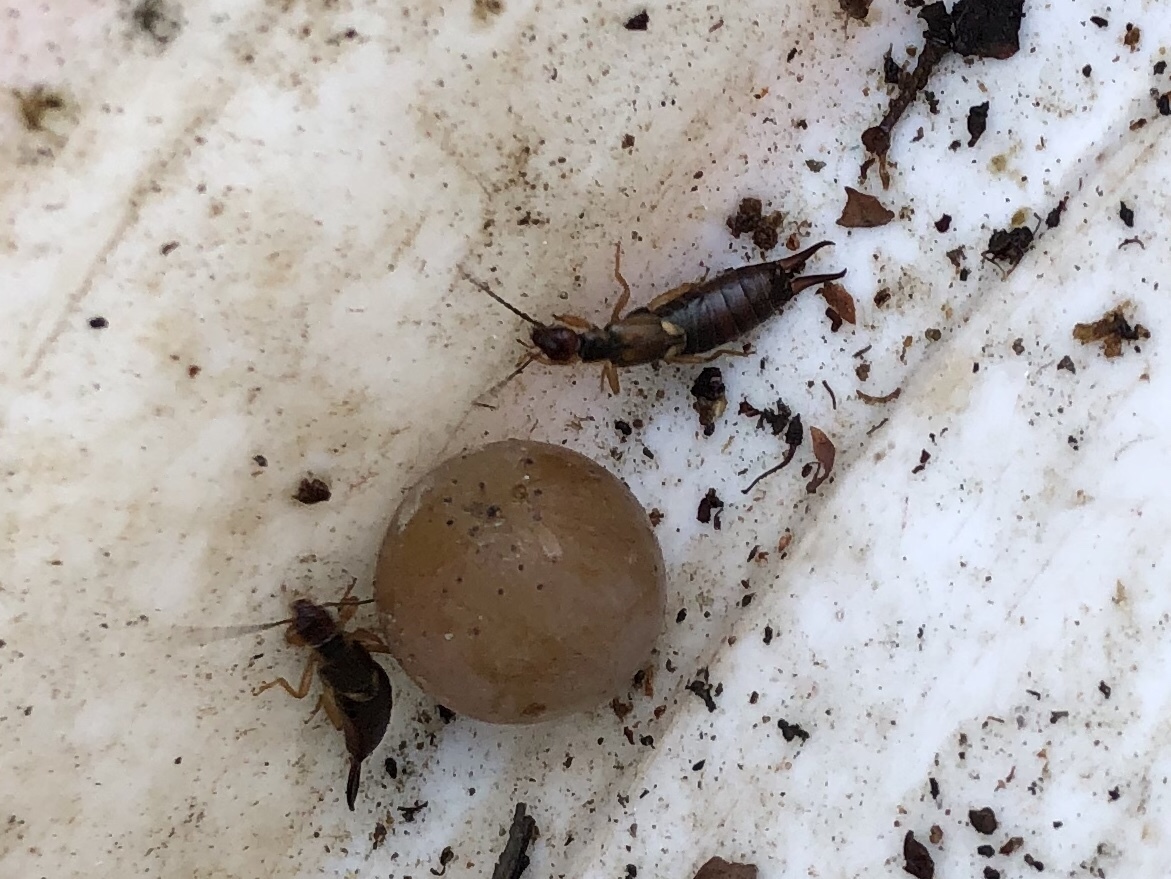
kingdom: Animalia
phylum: Arthropoda
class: Insecta
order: Dermaptera
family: Forficulidae
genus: Forficula
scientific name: Forficula
